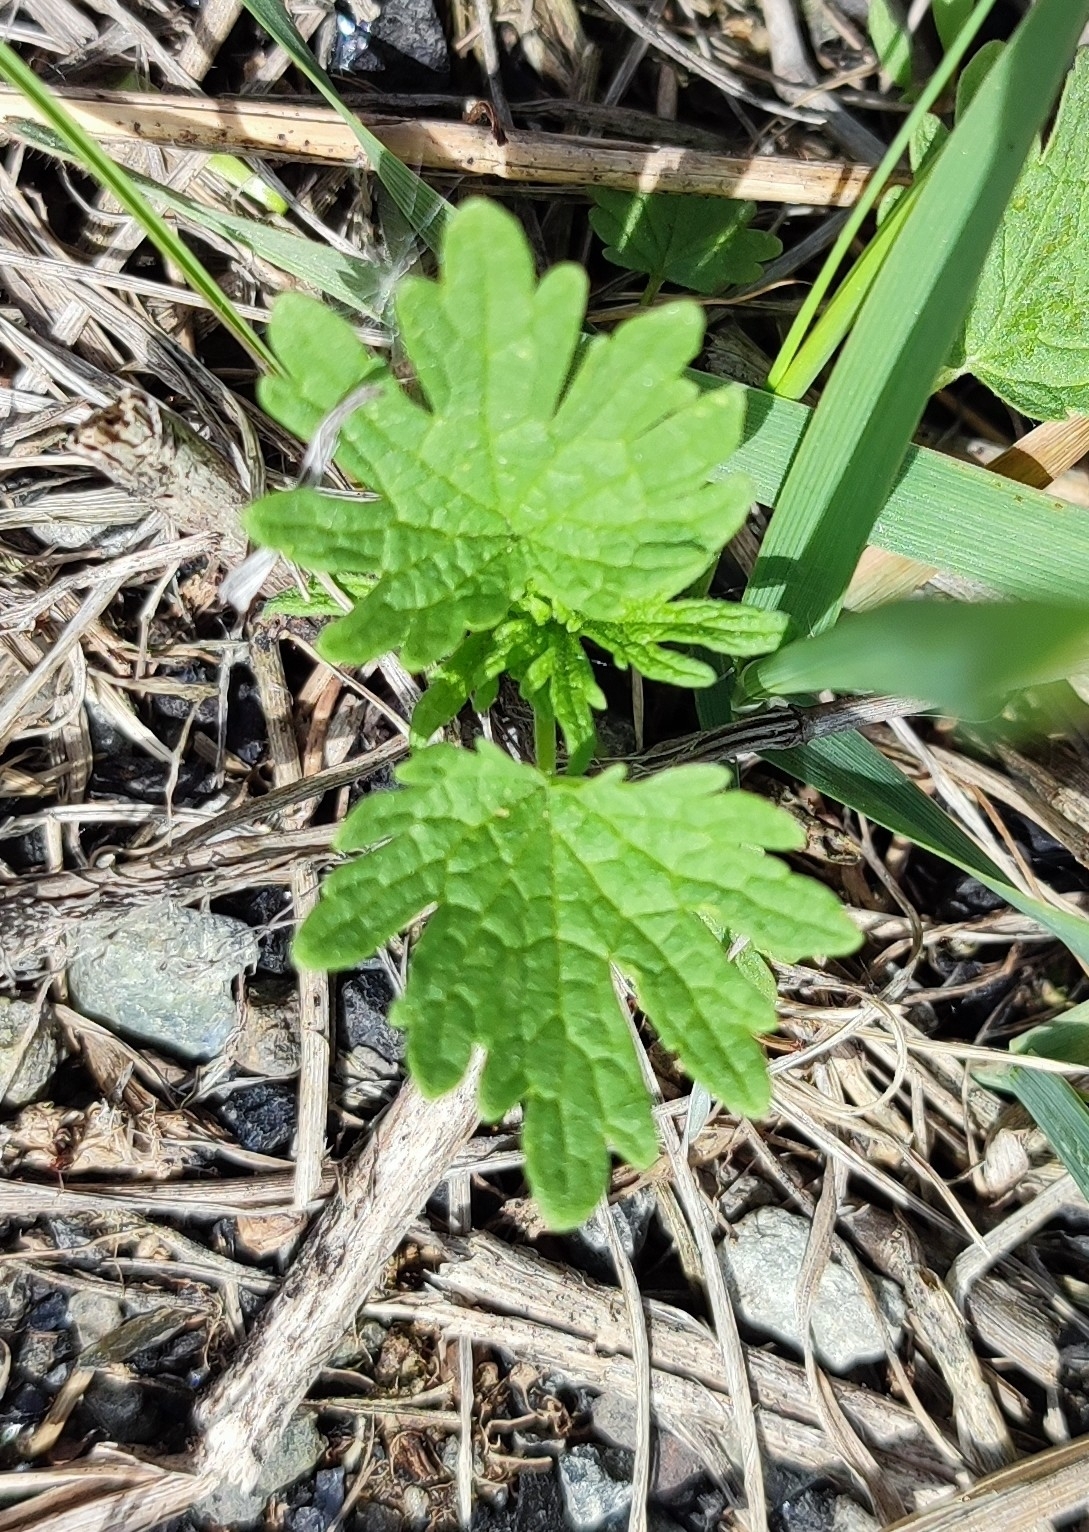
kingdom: Plantae
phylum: Tracheophyta
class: Magnoliopsida
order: Lamiales
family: Lamiaceae
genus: Leonurus
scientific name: Leonurus glaucescens
